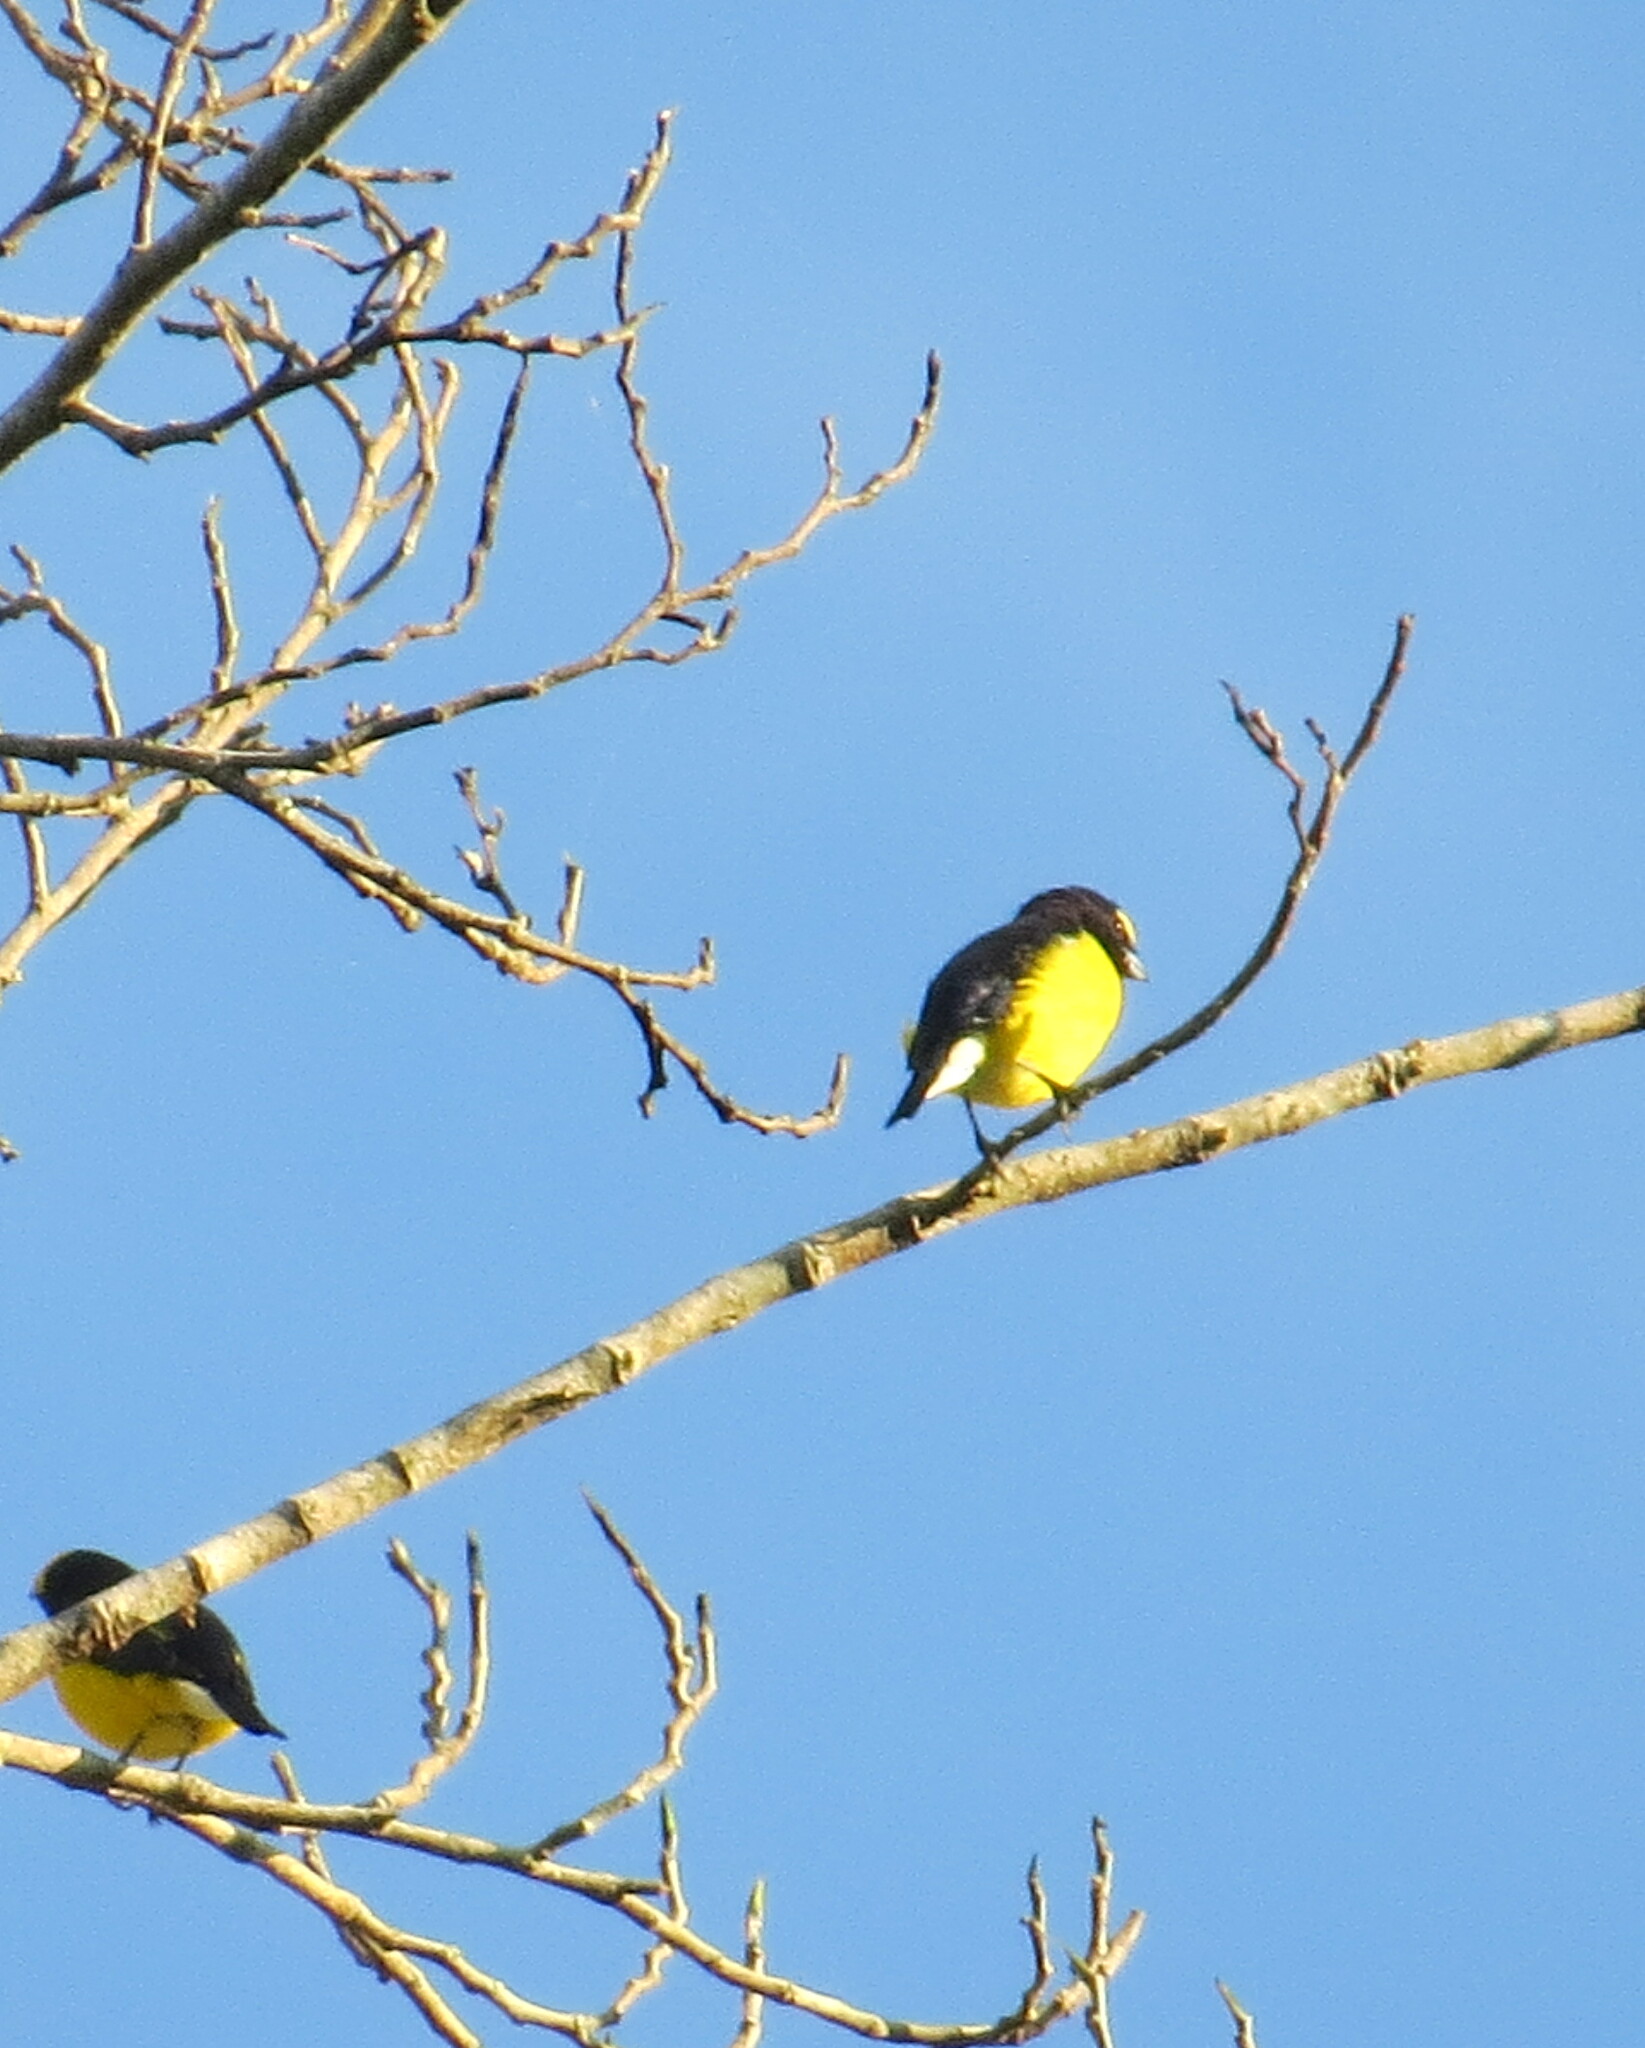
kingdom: Animalia
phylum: Chordata
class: Aves
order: Passeriformes
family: Fringillidae
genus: Euphonia
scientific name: Euphonia godmani
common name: West mexican euphonia
